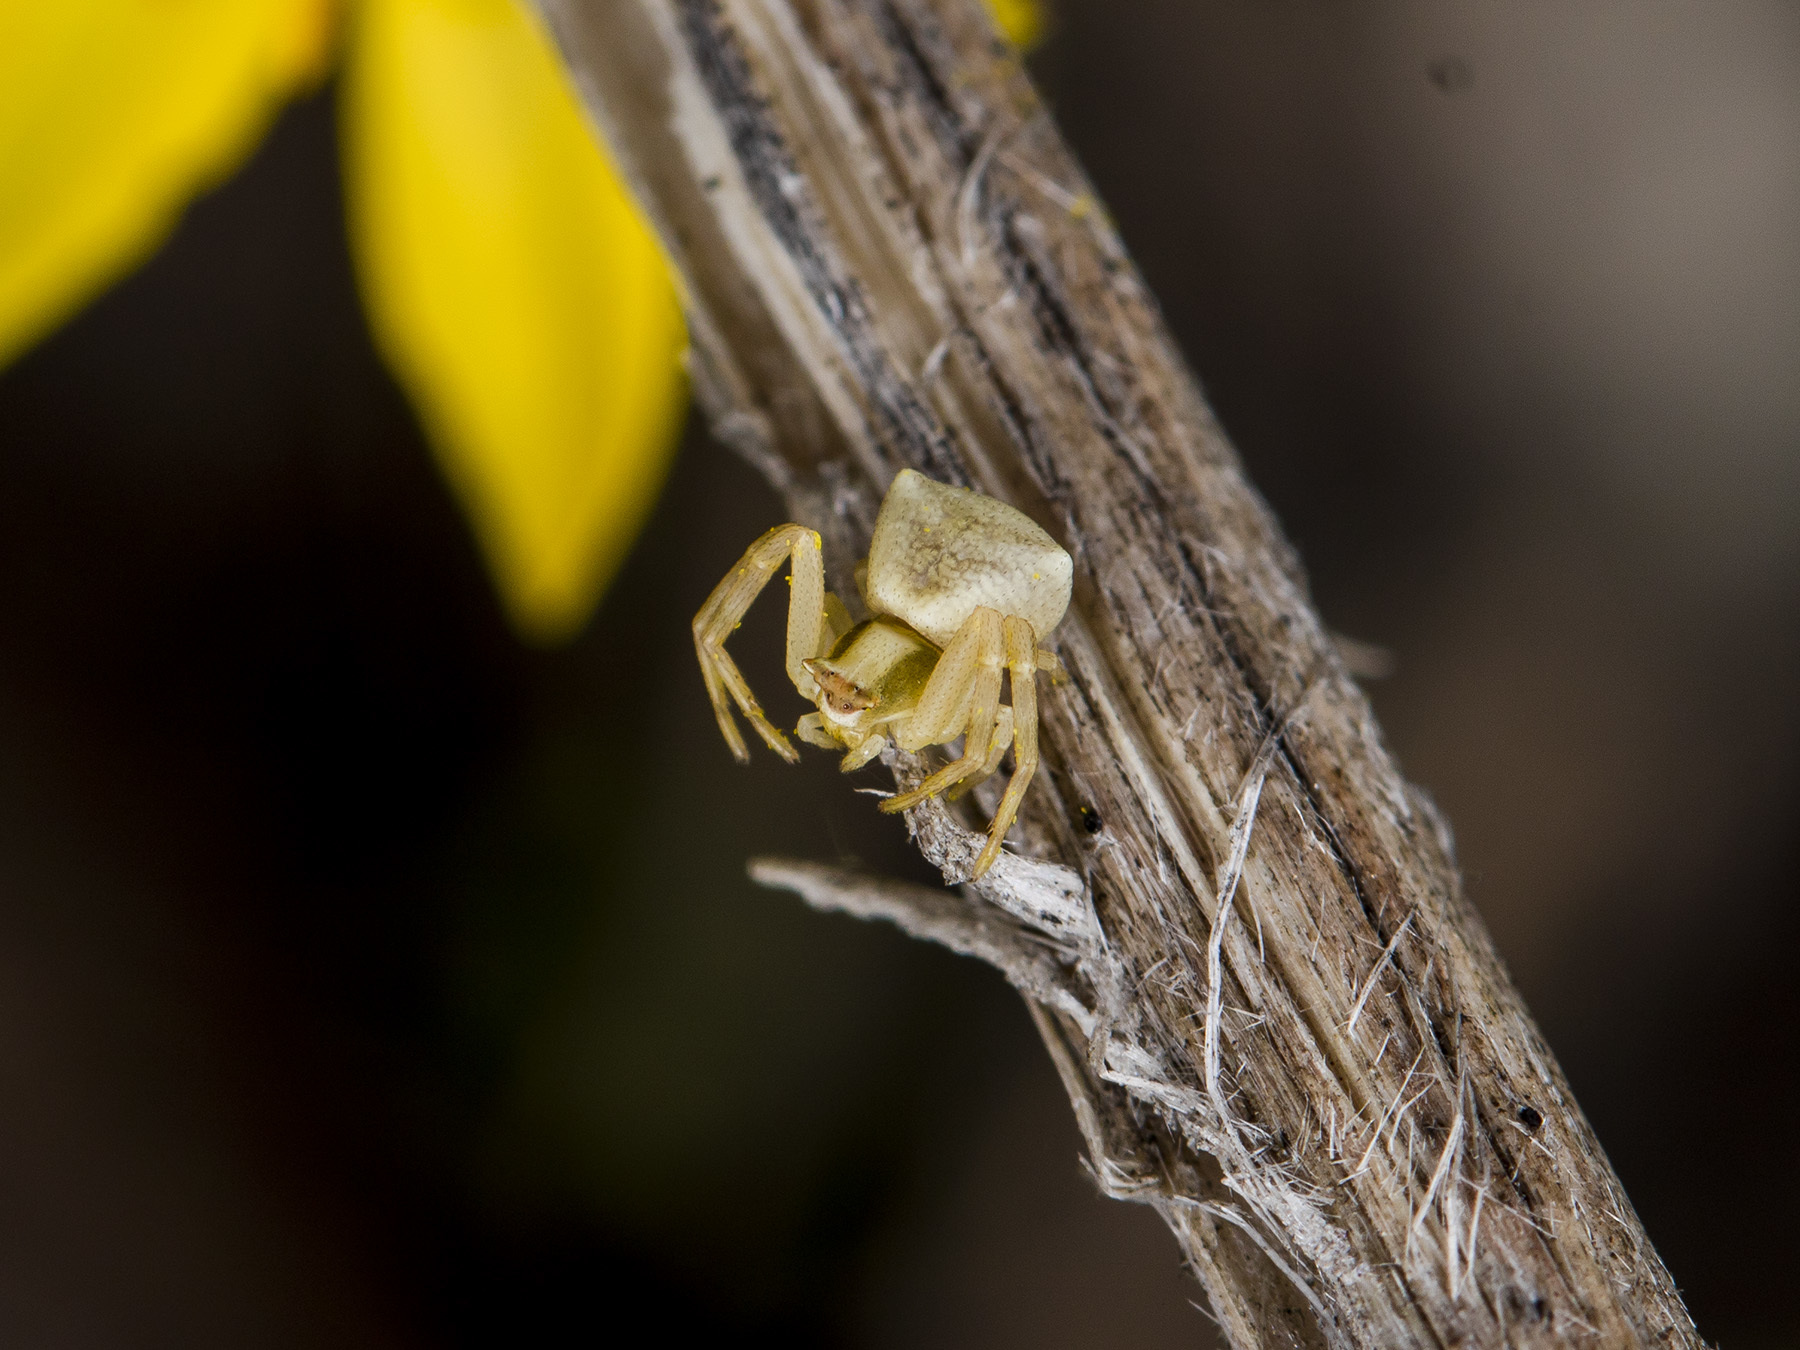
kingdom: Animalia
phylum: Arthropoda
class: Arachnida
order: Araneae
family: Thomisidae
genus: Thomisus
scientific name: Thomisus onustus
